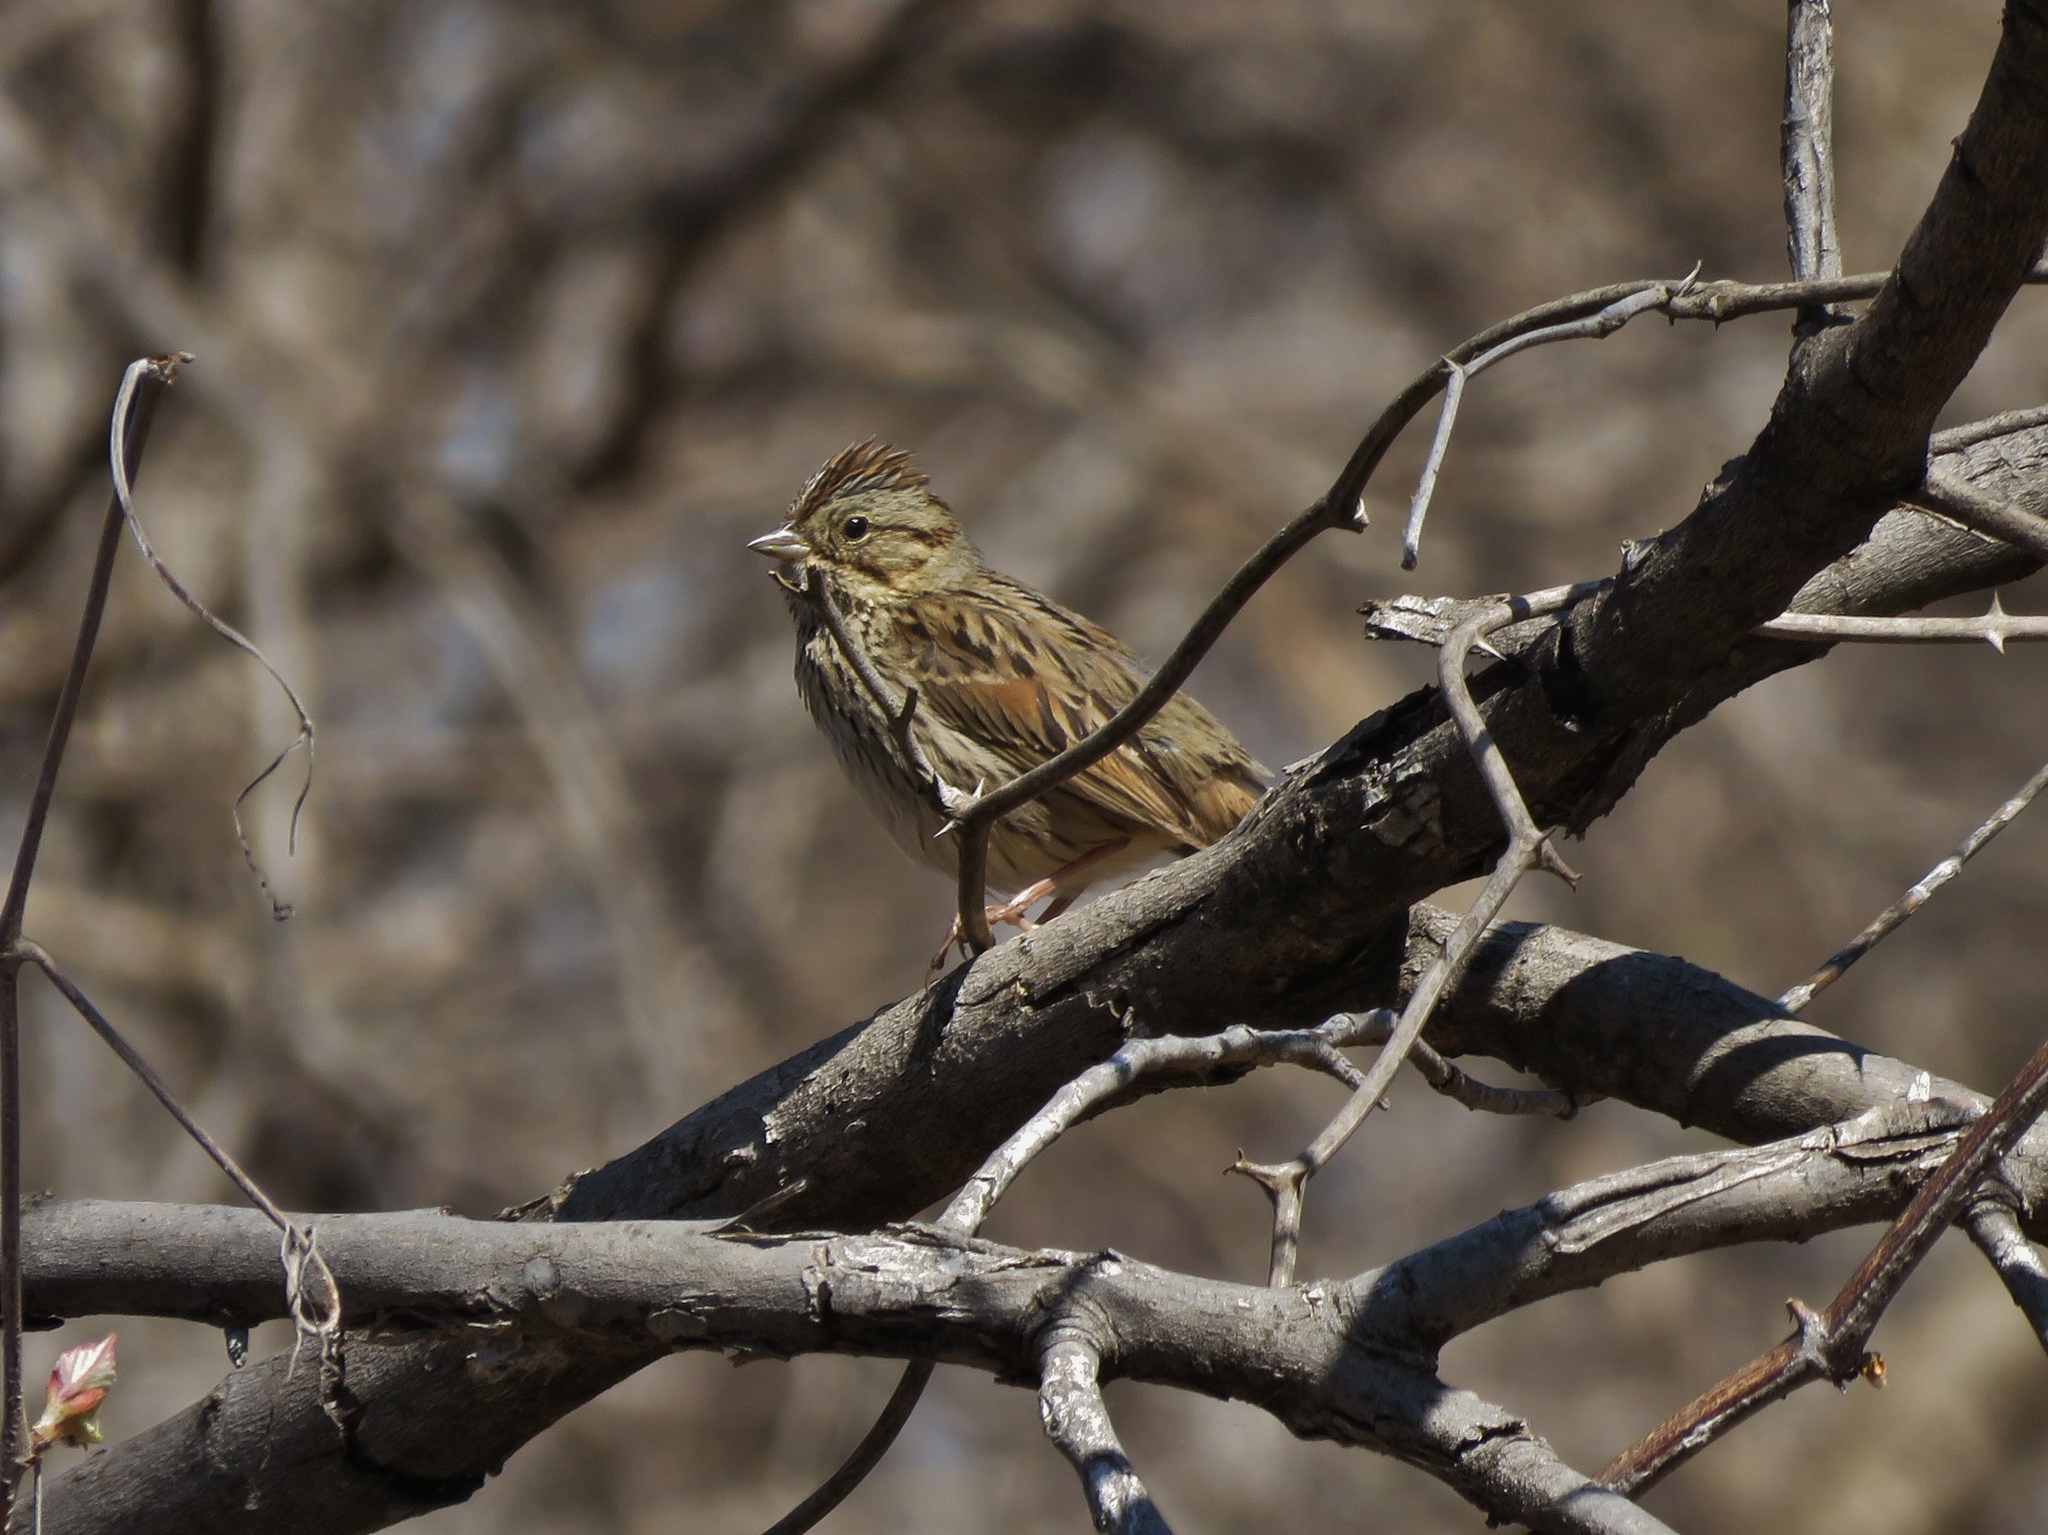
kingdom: Animalia
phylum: Chordata
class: Aves
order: Passeriformes
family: Passerellidae
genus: Melospiza
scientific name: Melospiza lincolnii
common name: Lincoln's sparrow
